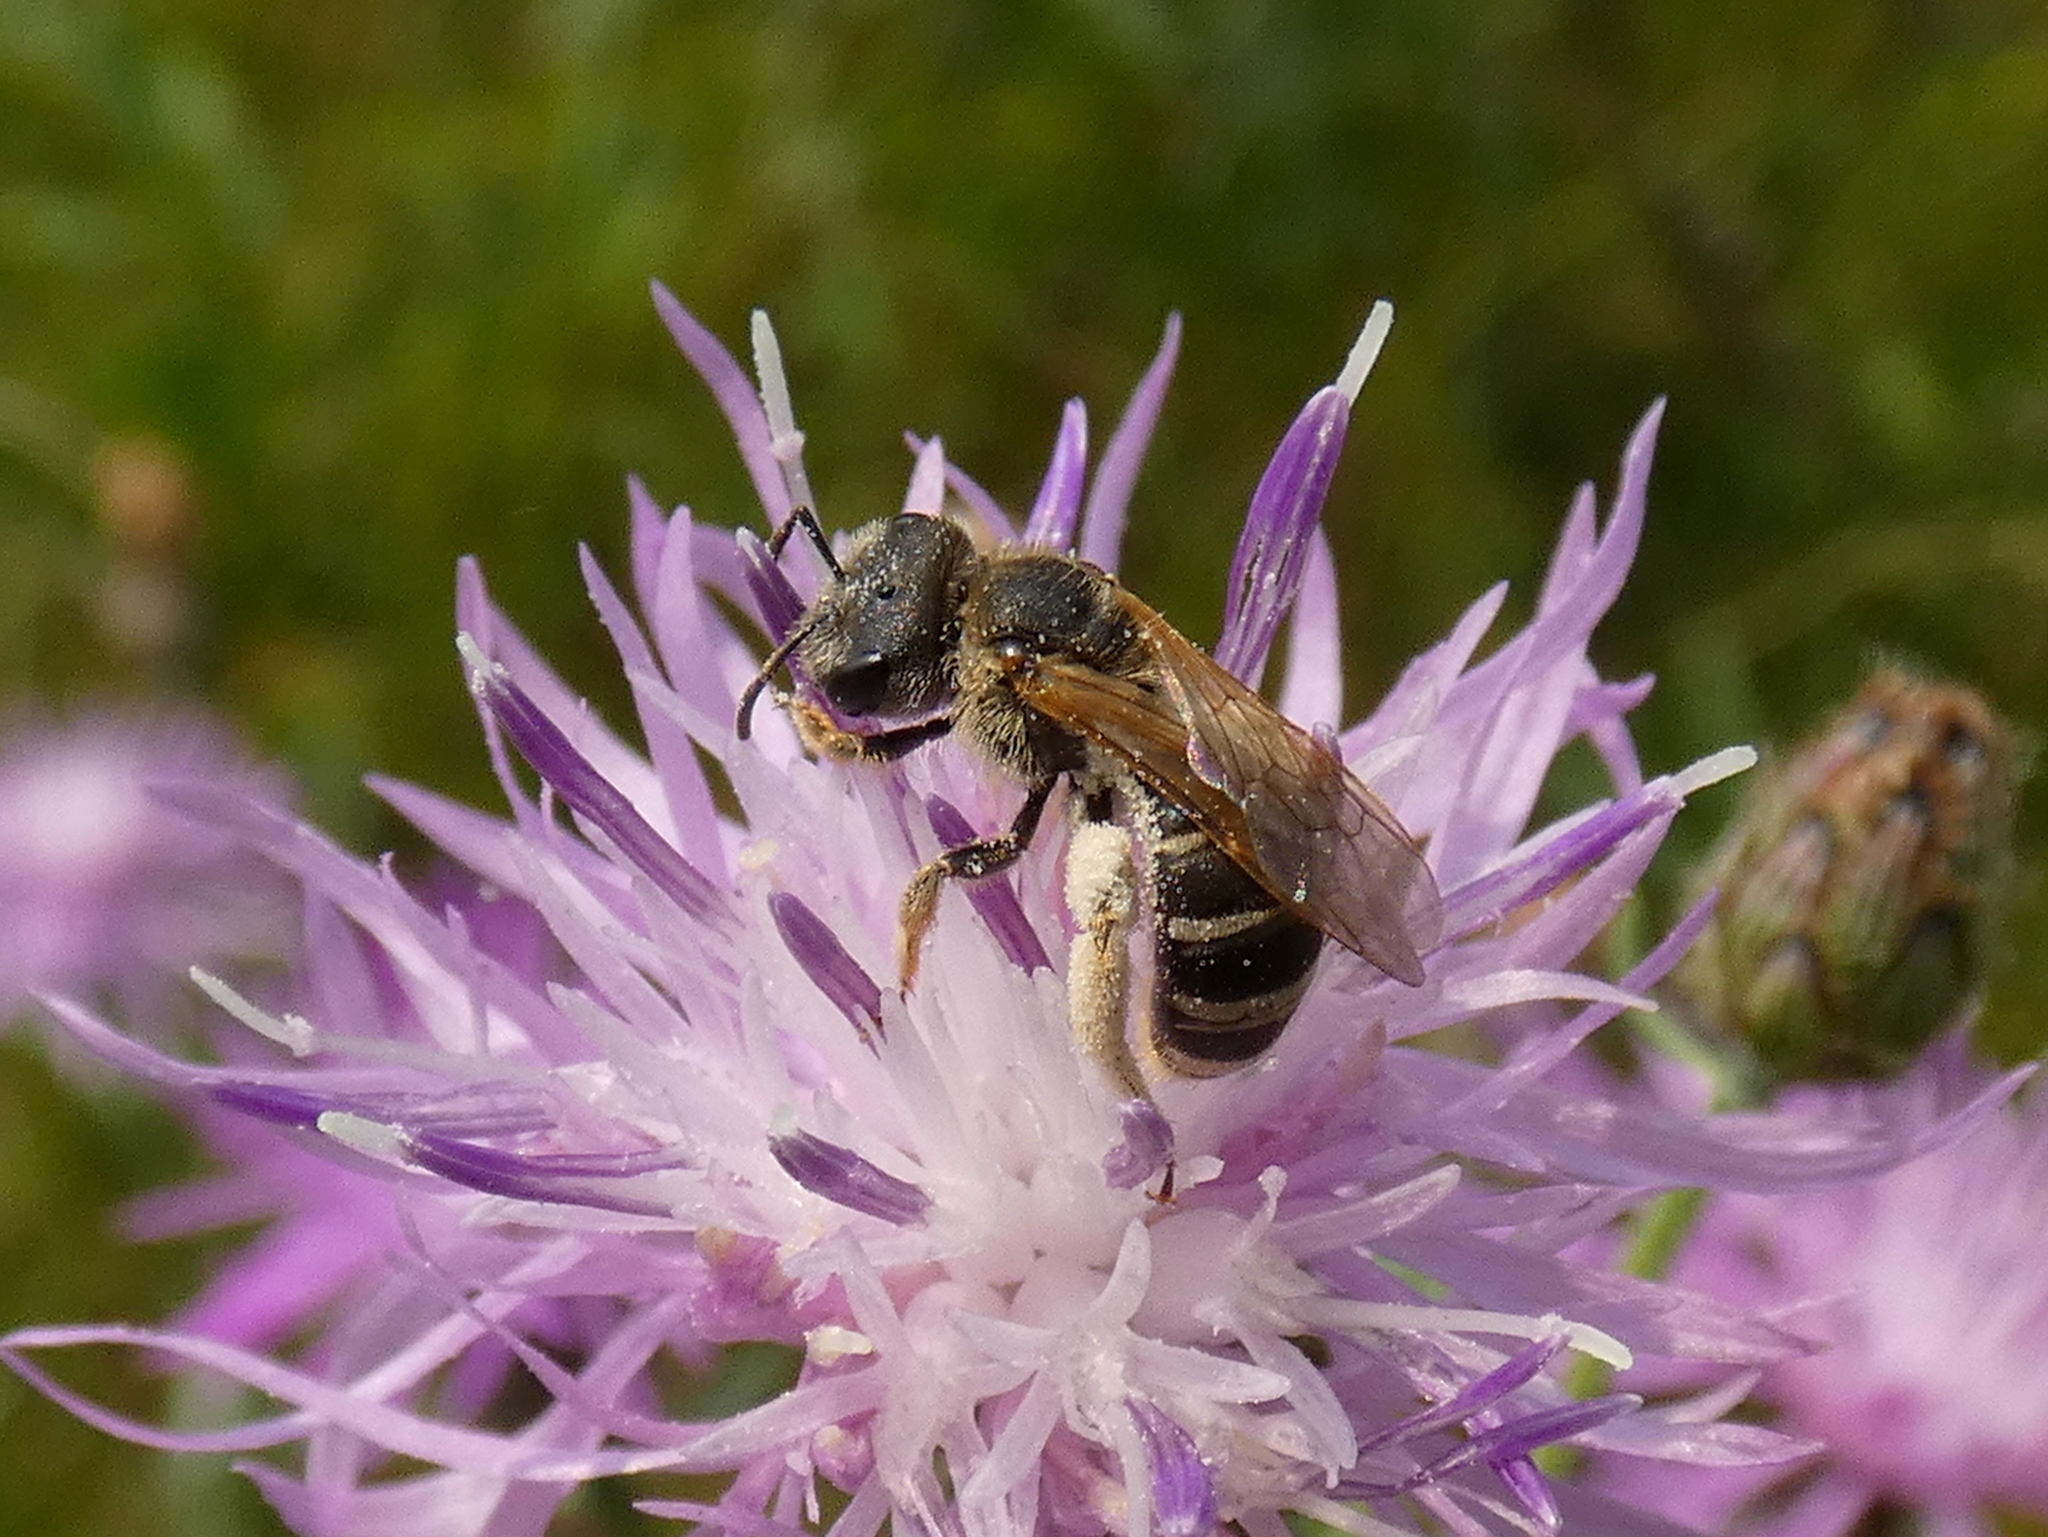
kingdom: Animalia
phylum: Arthropoda
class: Insecta
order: Hymenoptera
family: Halictidae
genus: Halictus
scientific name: Halictus ligatus
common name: Ligated furrow bee
